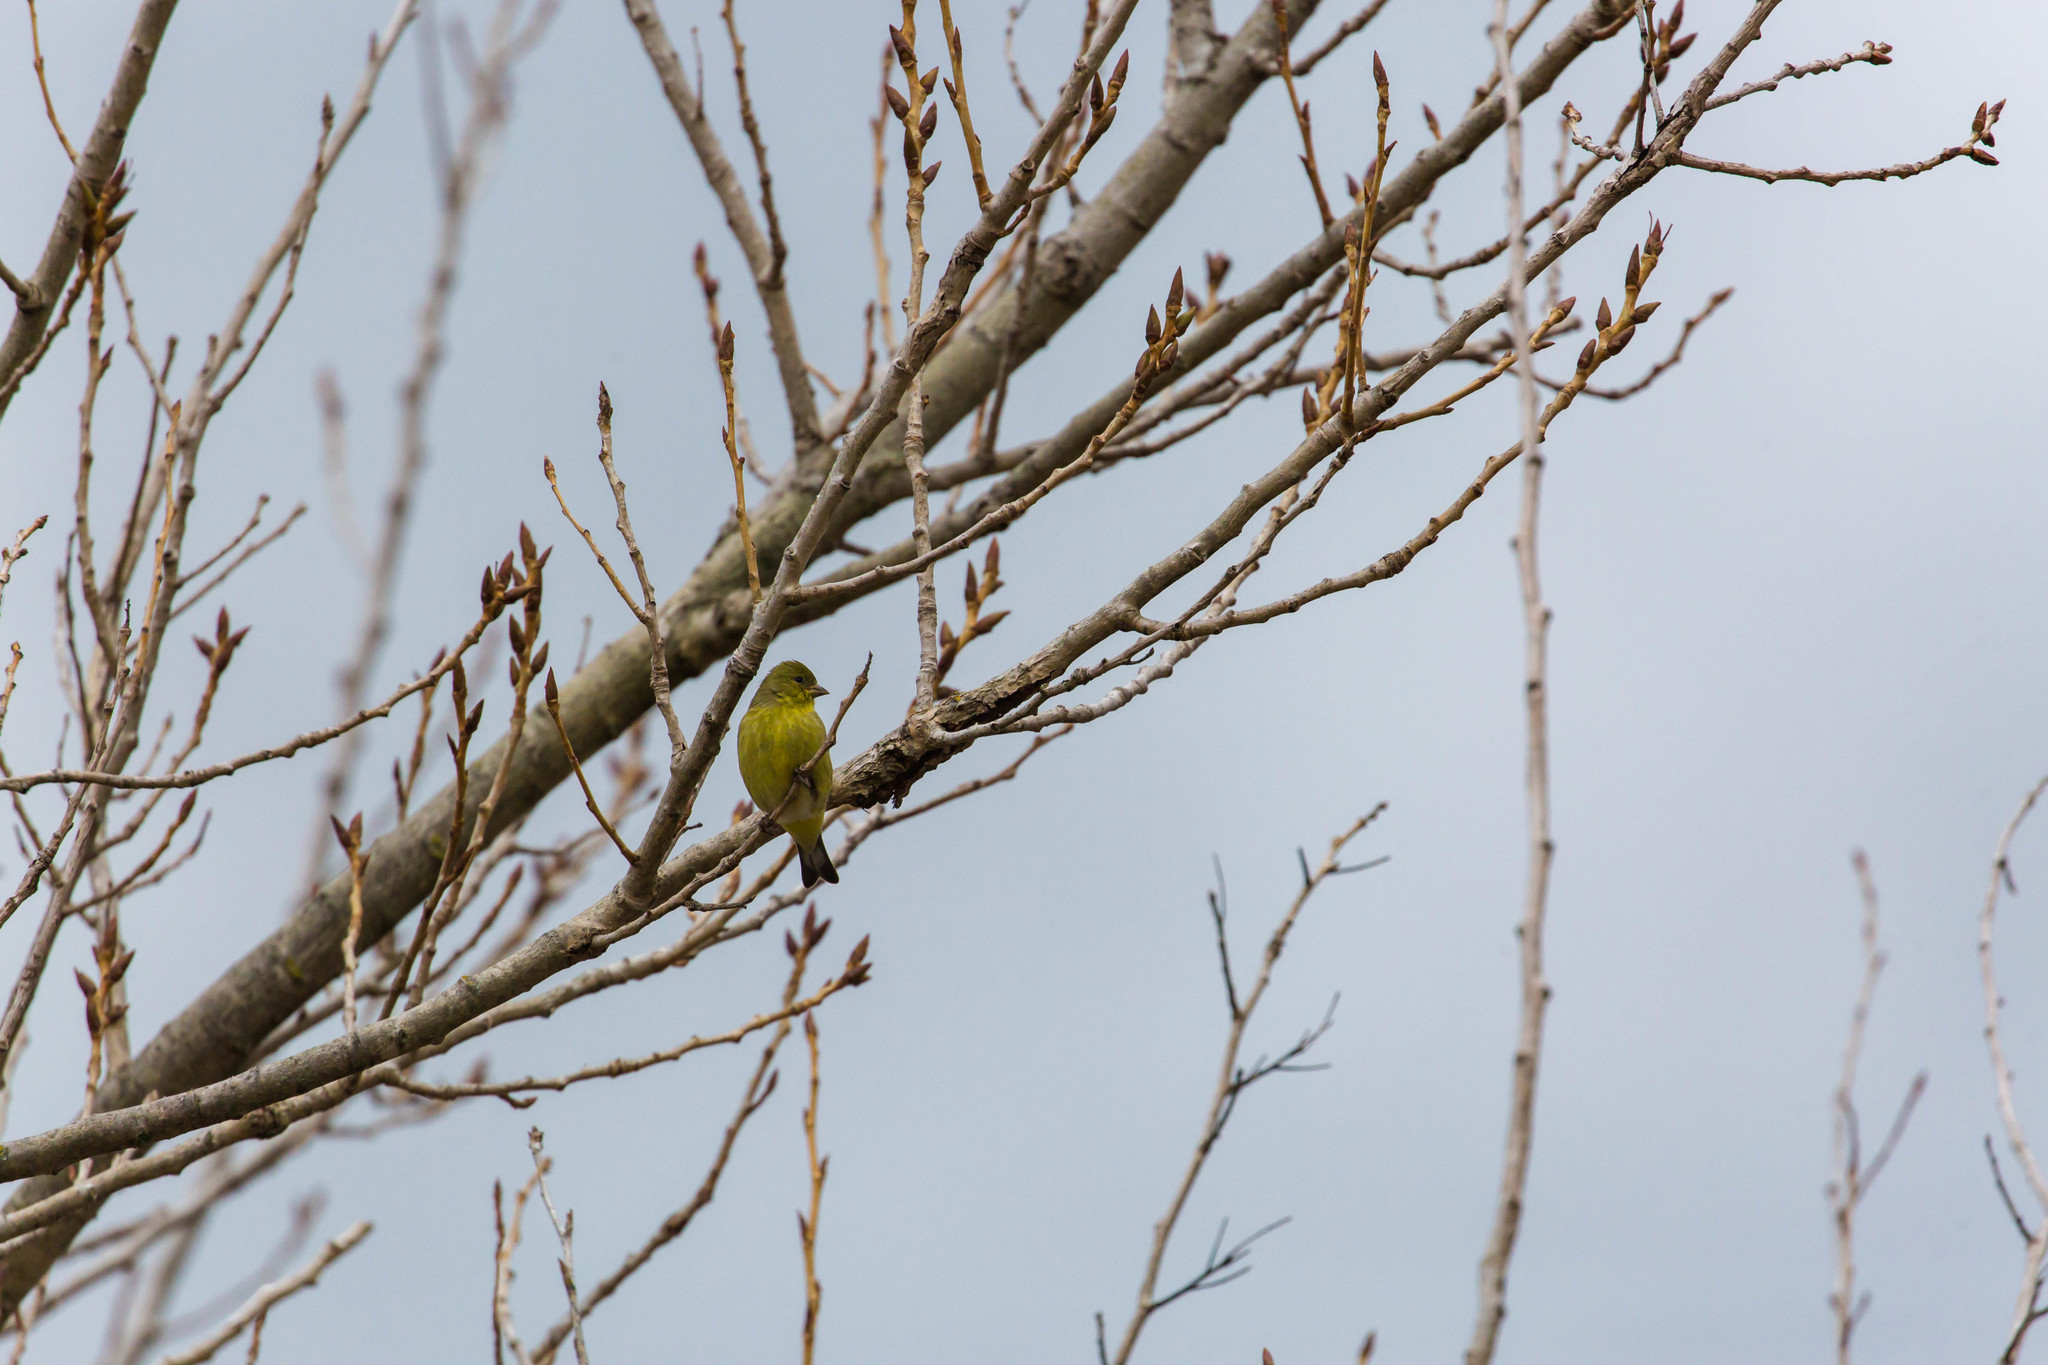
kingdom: Animalia
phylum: Chordata
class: Aves
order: Passeriformes
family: Fringillidae
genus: Spinus
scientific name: Spinus psaltria
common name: Lesser goldfinch
